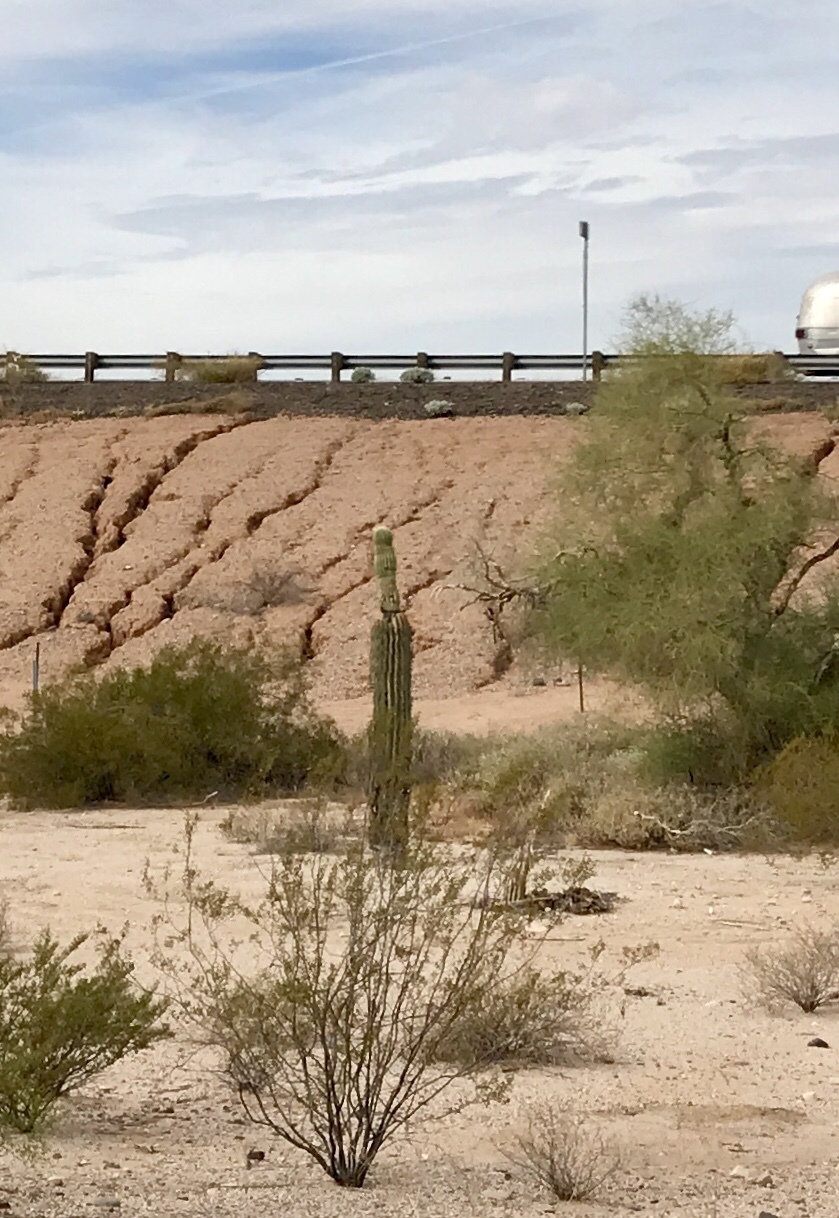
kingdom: Plantae
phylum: Tracheophyta
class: Magnoliopsida
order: Caryophyllales
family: Cactaceae
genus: Carnegiea
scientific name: Carnegiea gigantea
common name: Saguaro
